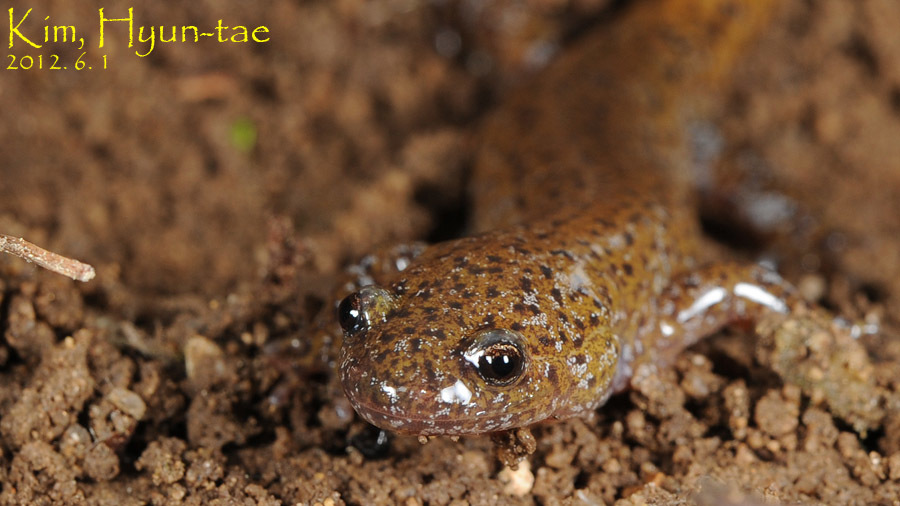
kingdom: Animalia
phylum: Chordata
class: Amphibia
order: Caudata
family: Hynobiidae
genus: Hynobius
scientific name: Hynobius leechii
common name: Gensan salamander
